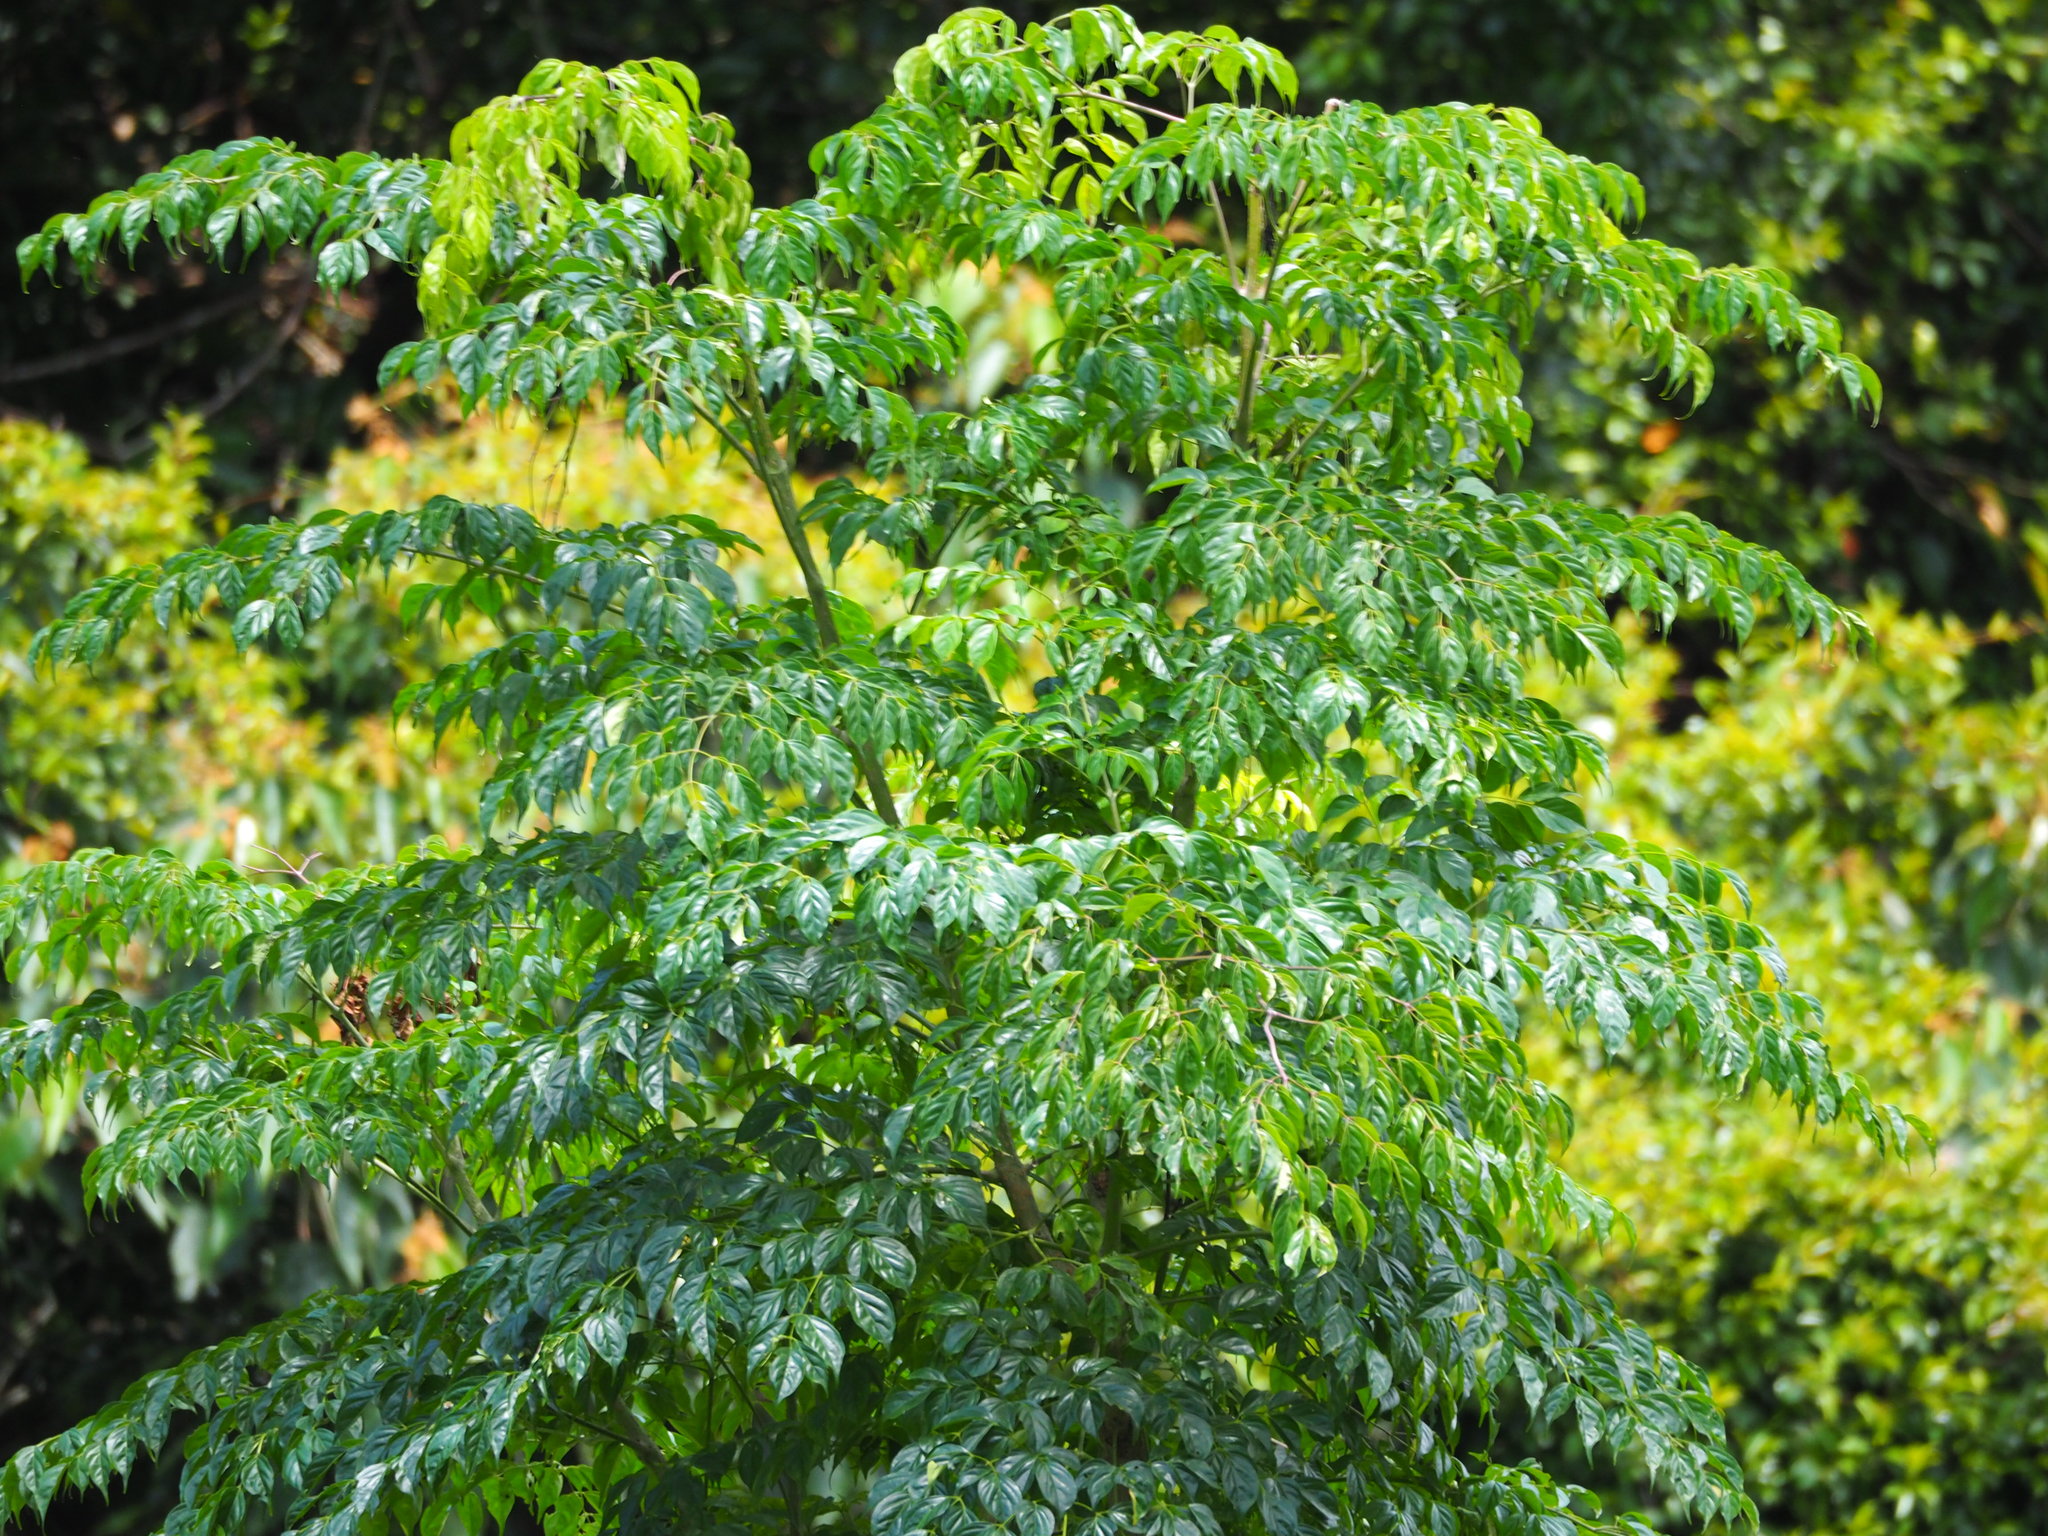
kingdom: Plantae
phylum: Tracheophyta
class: Magnoliopsida
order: Lamiales
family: Bignoniaceae
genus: Radermachera
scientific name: Radermachera sinica
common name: China doll plant
